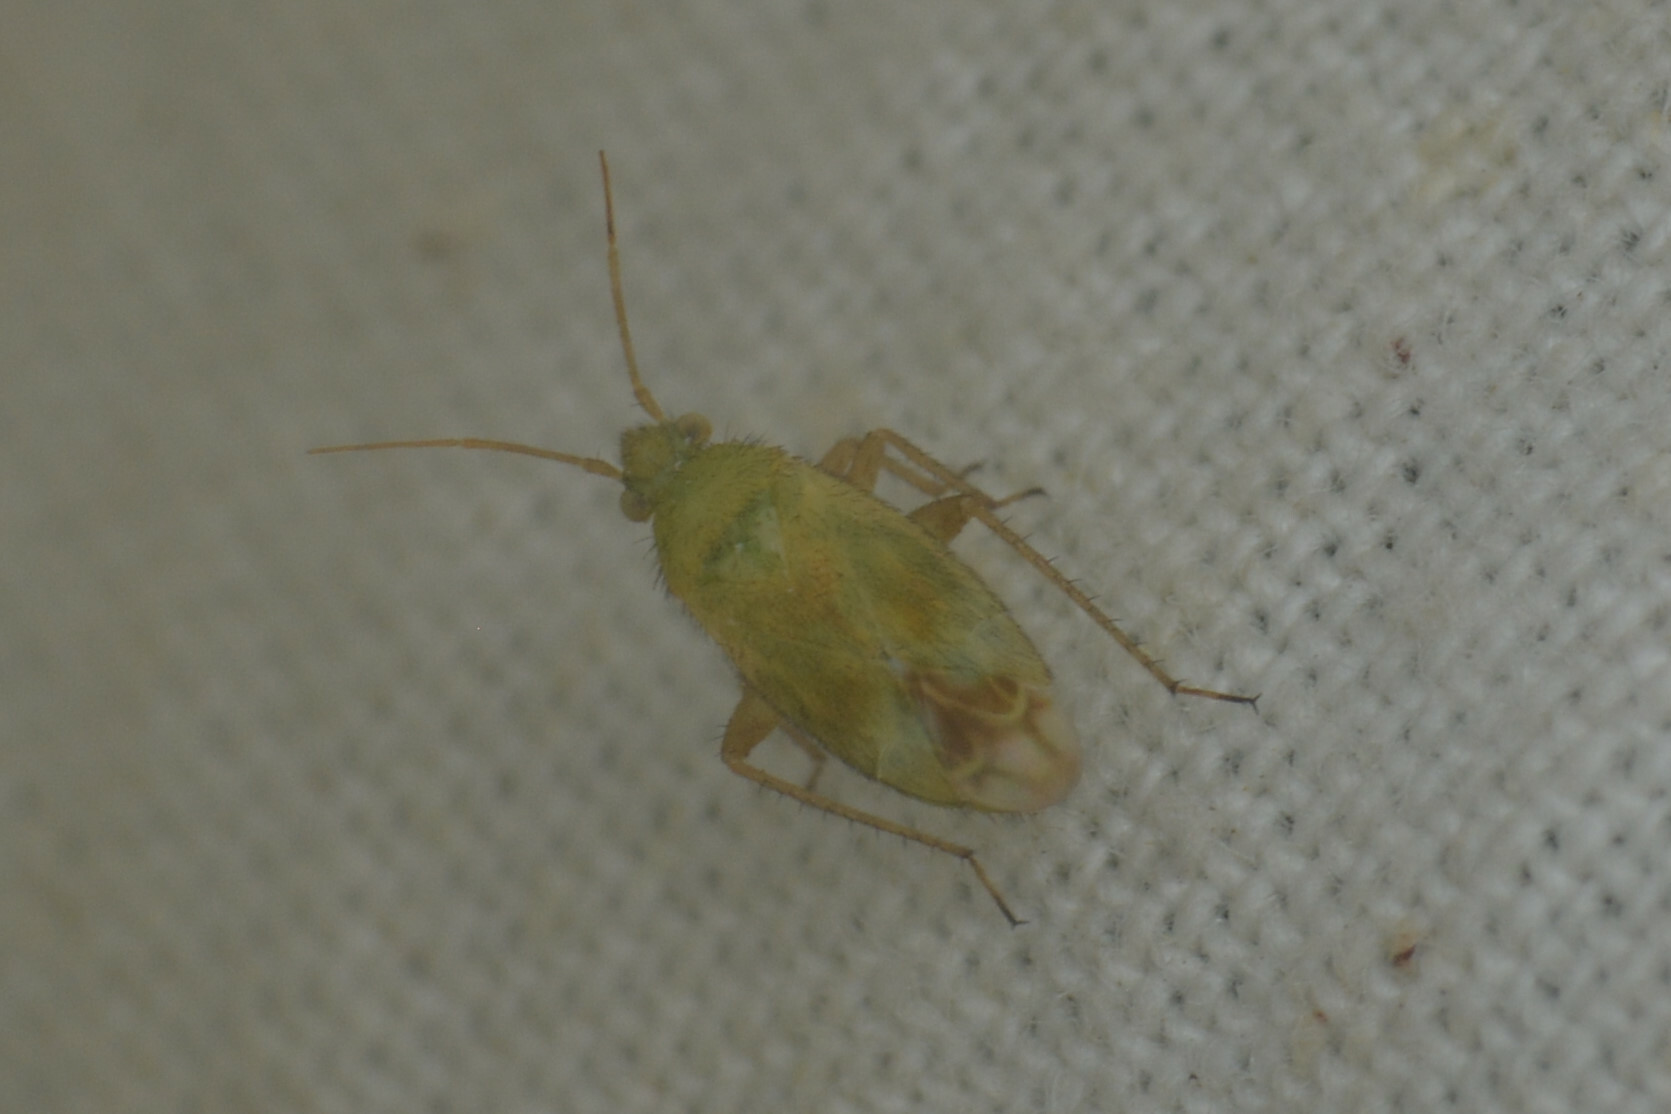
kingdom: Animalia
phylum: Arthropoda
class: Insecta
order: Hemiptera
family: Miridae
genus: Megalocoleus
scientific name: Megalocoleus tanaceti
